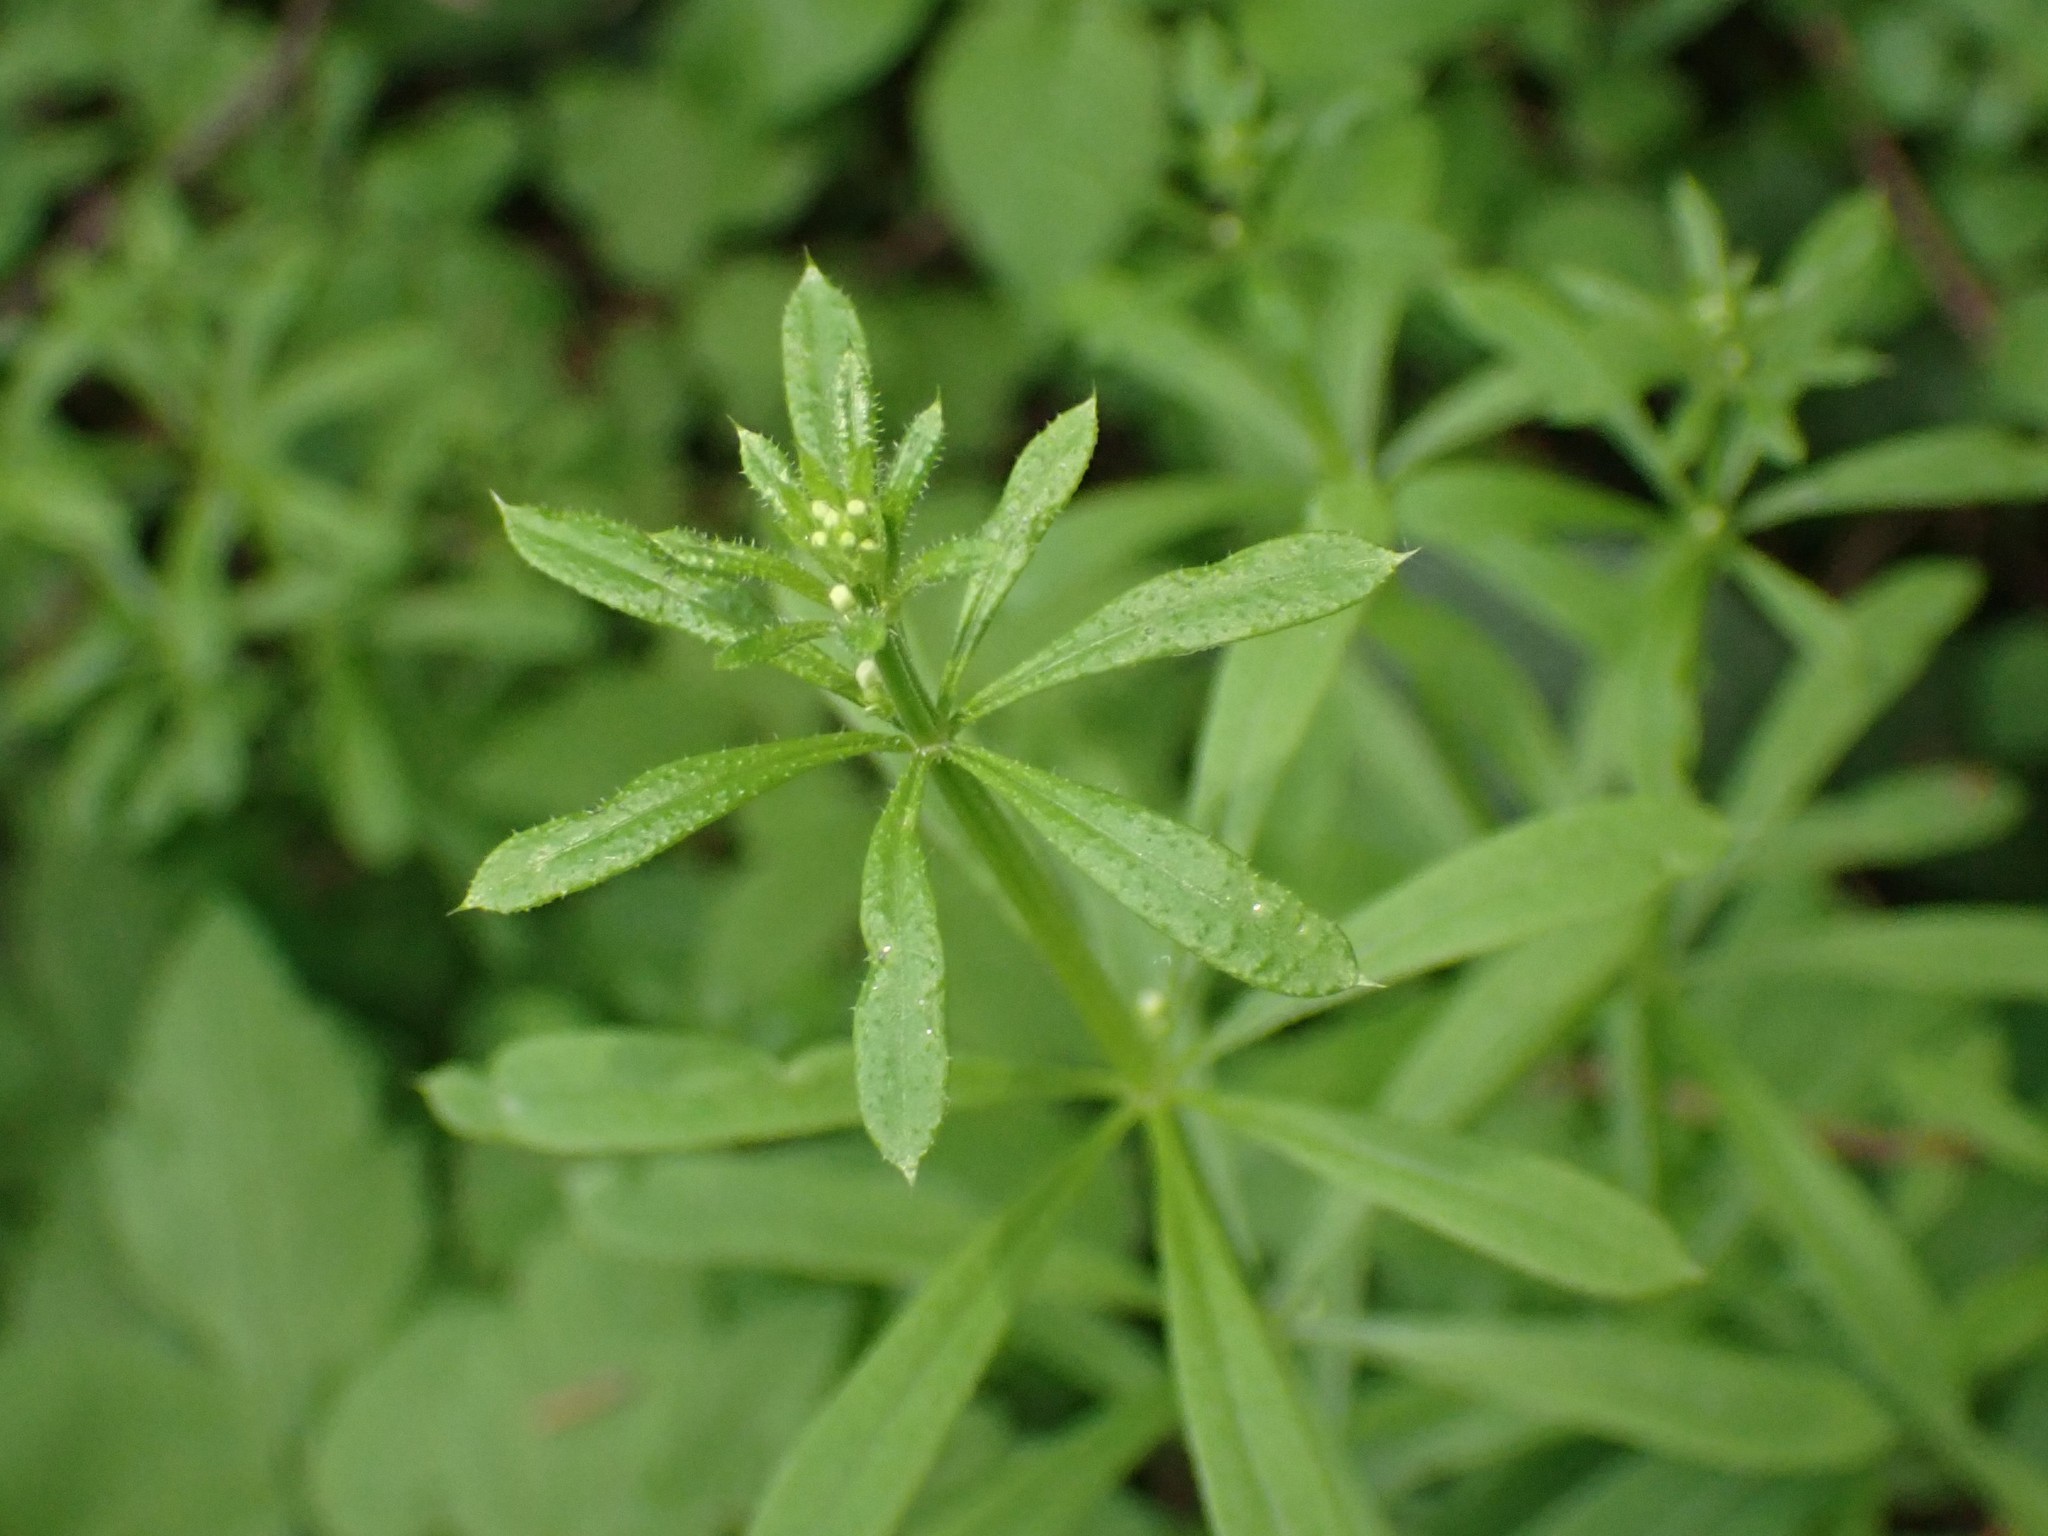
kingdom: Plantae
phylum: Tracheophyta
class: Magnoliopsida
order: Gentianales
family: Rubiaceae
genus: Galium
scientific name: Galium aparine
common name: Cleavers
